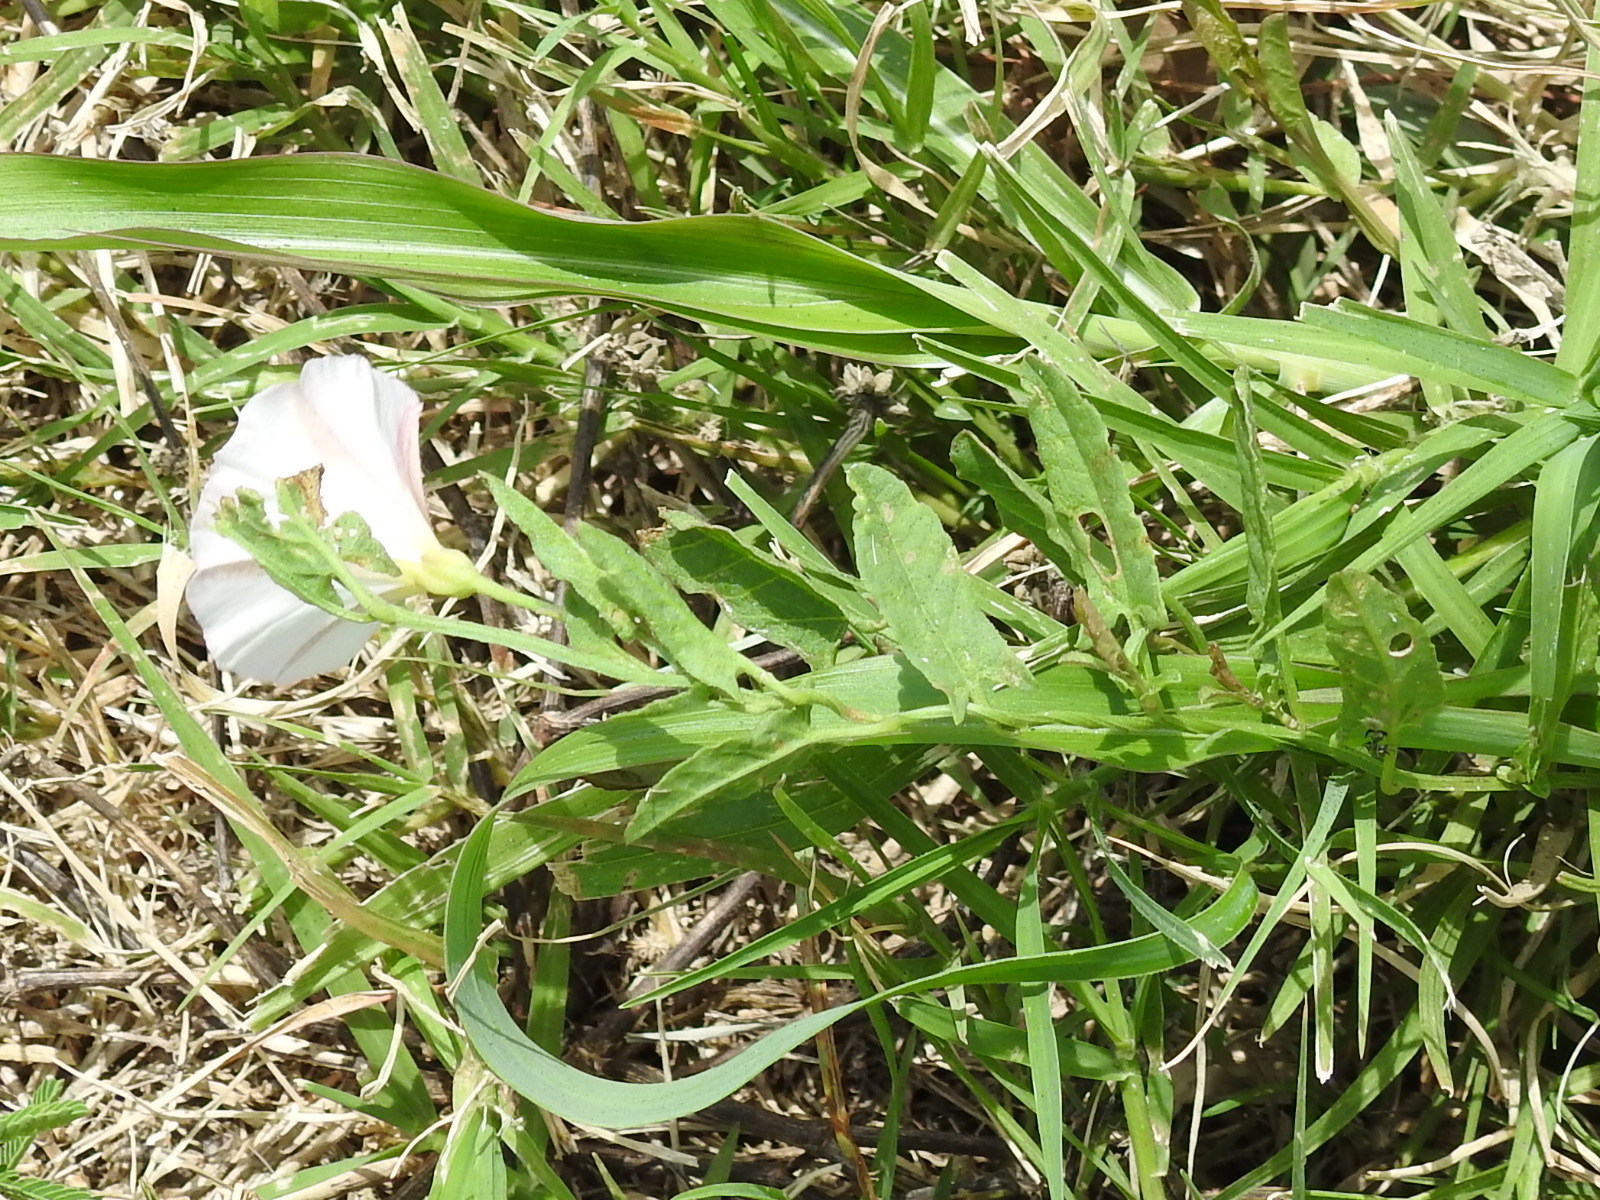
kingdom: Plantae
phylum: Tracheophyta
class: Magnoliopsida
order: Solanales
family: Convolvulaceae
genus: Convolvulus
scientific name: Convolvulus arvensis
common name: Field bindweed
